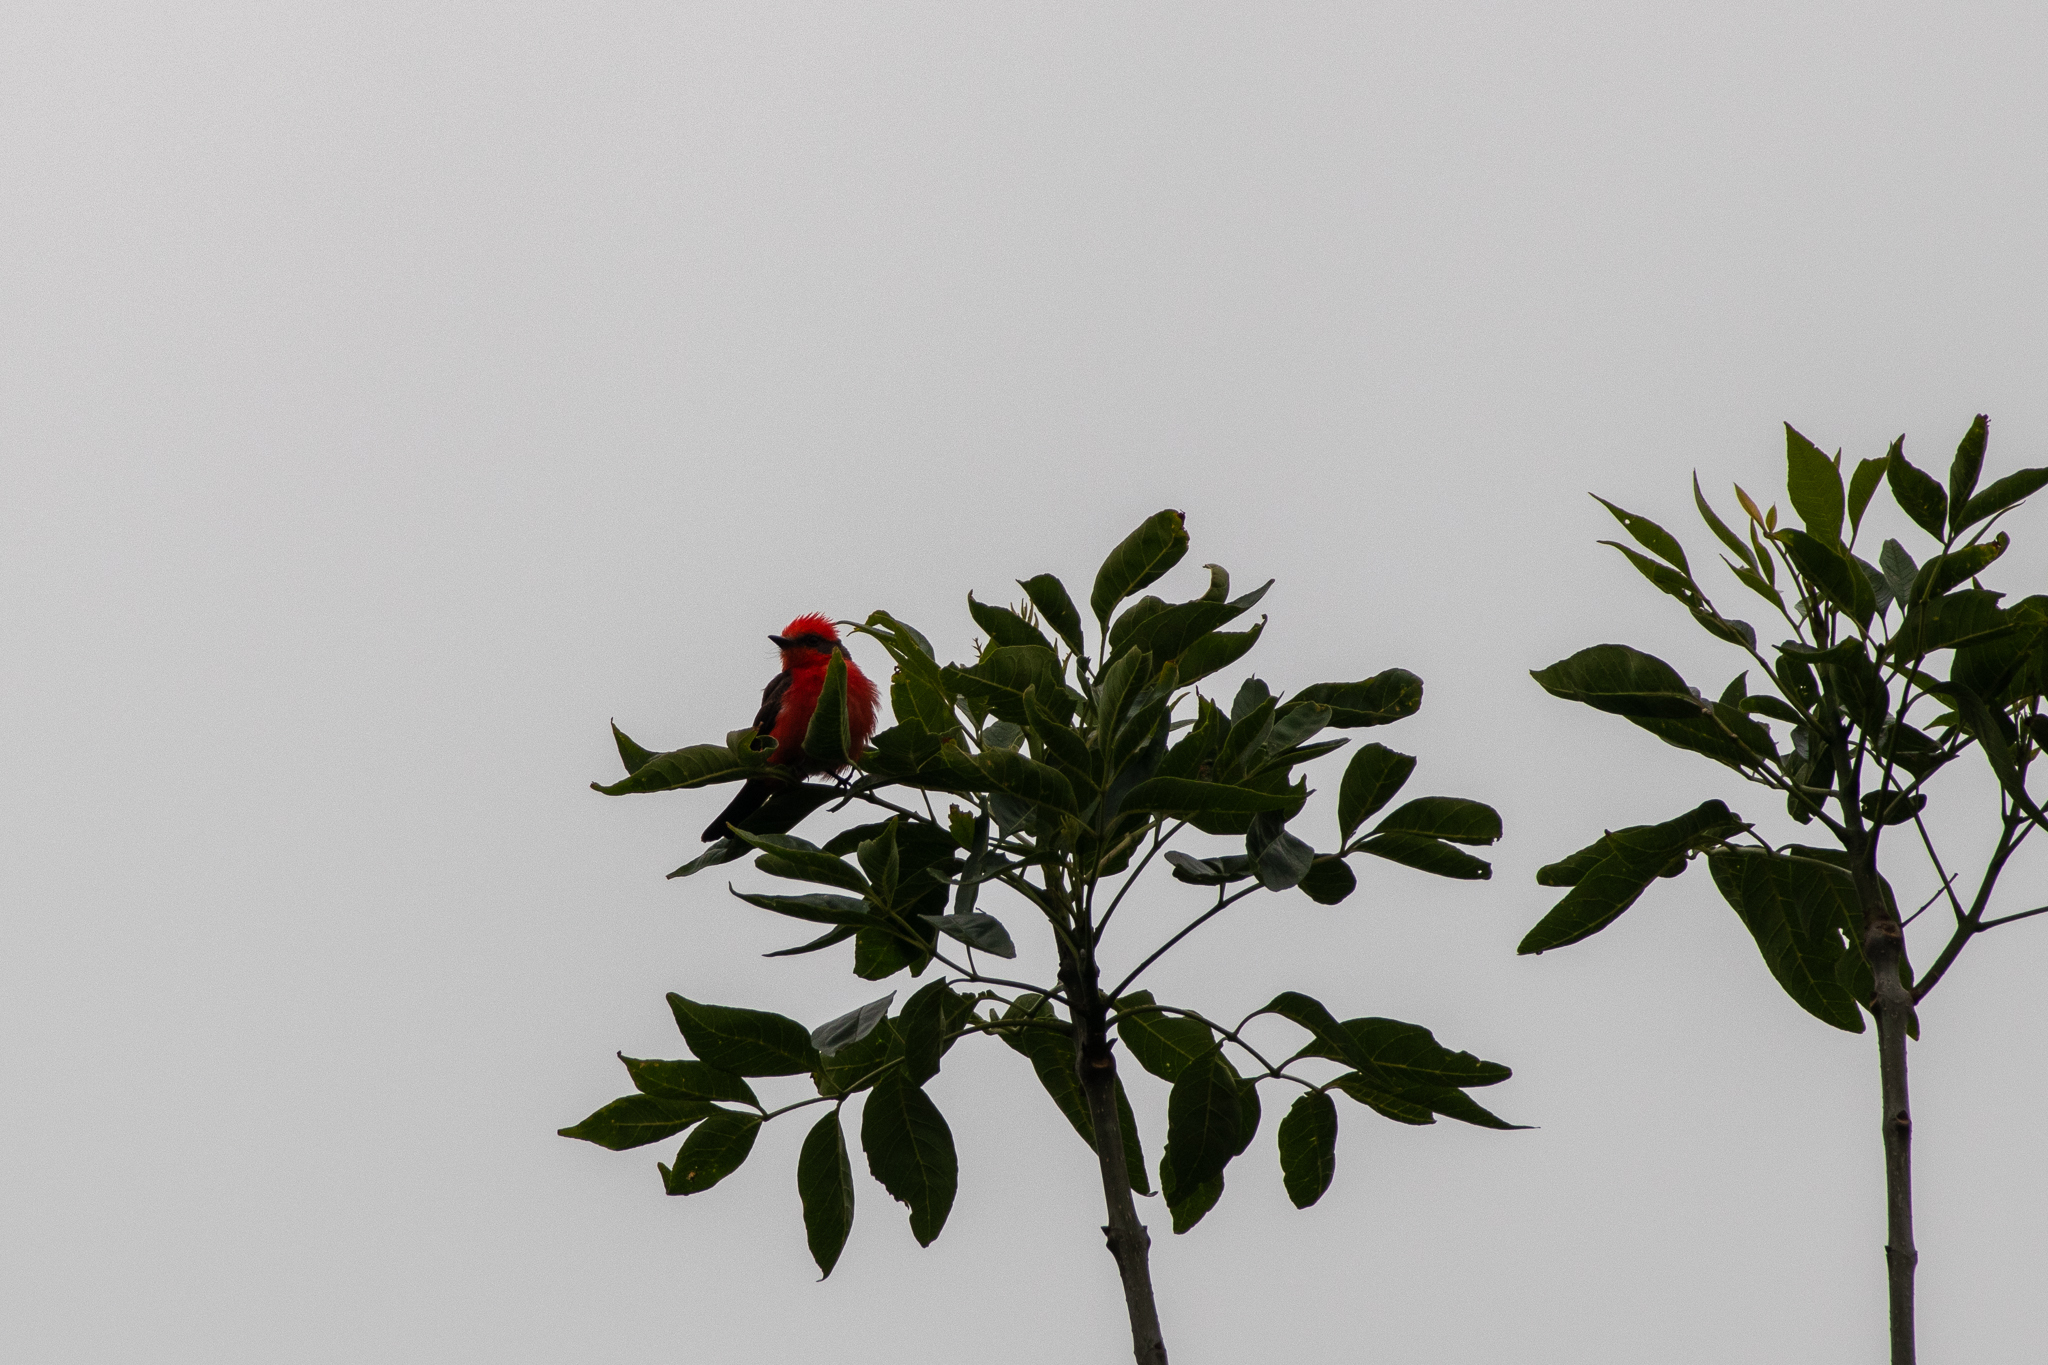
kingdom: Animalia
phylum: Chordata
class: Aves
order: Passeriformes
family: Tyrannidae
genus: Pyrocephalus
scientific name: Pyrocephalus rubinus
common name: Vermilion flycatcher
